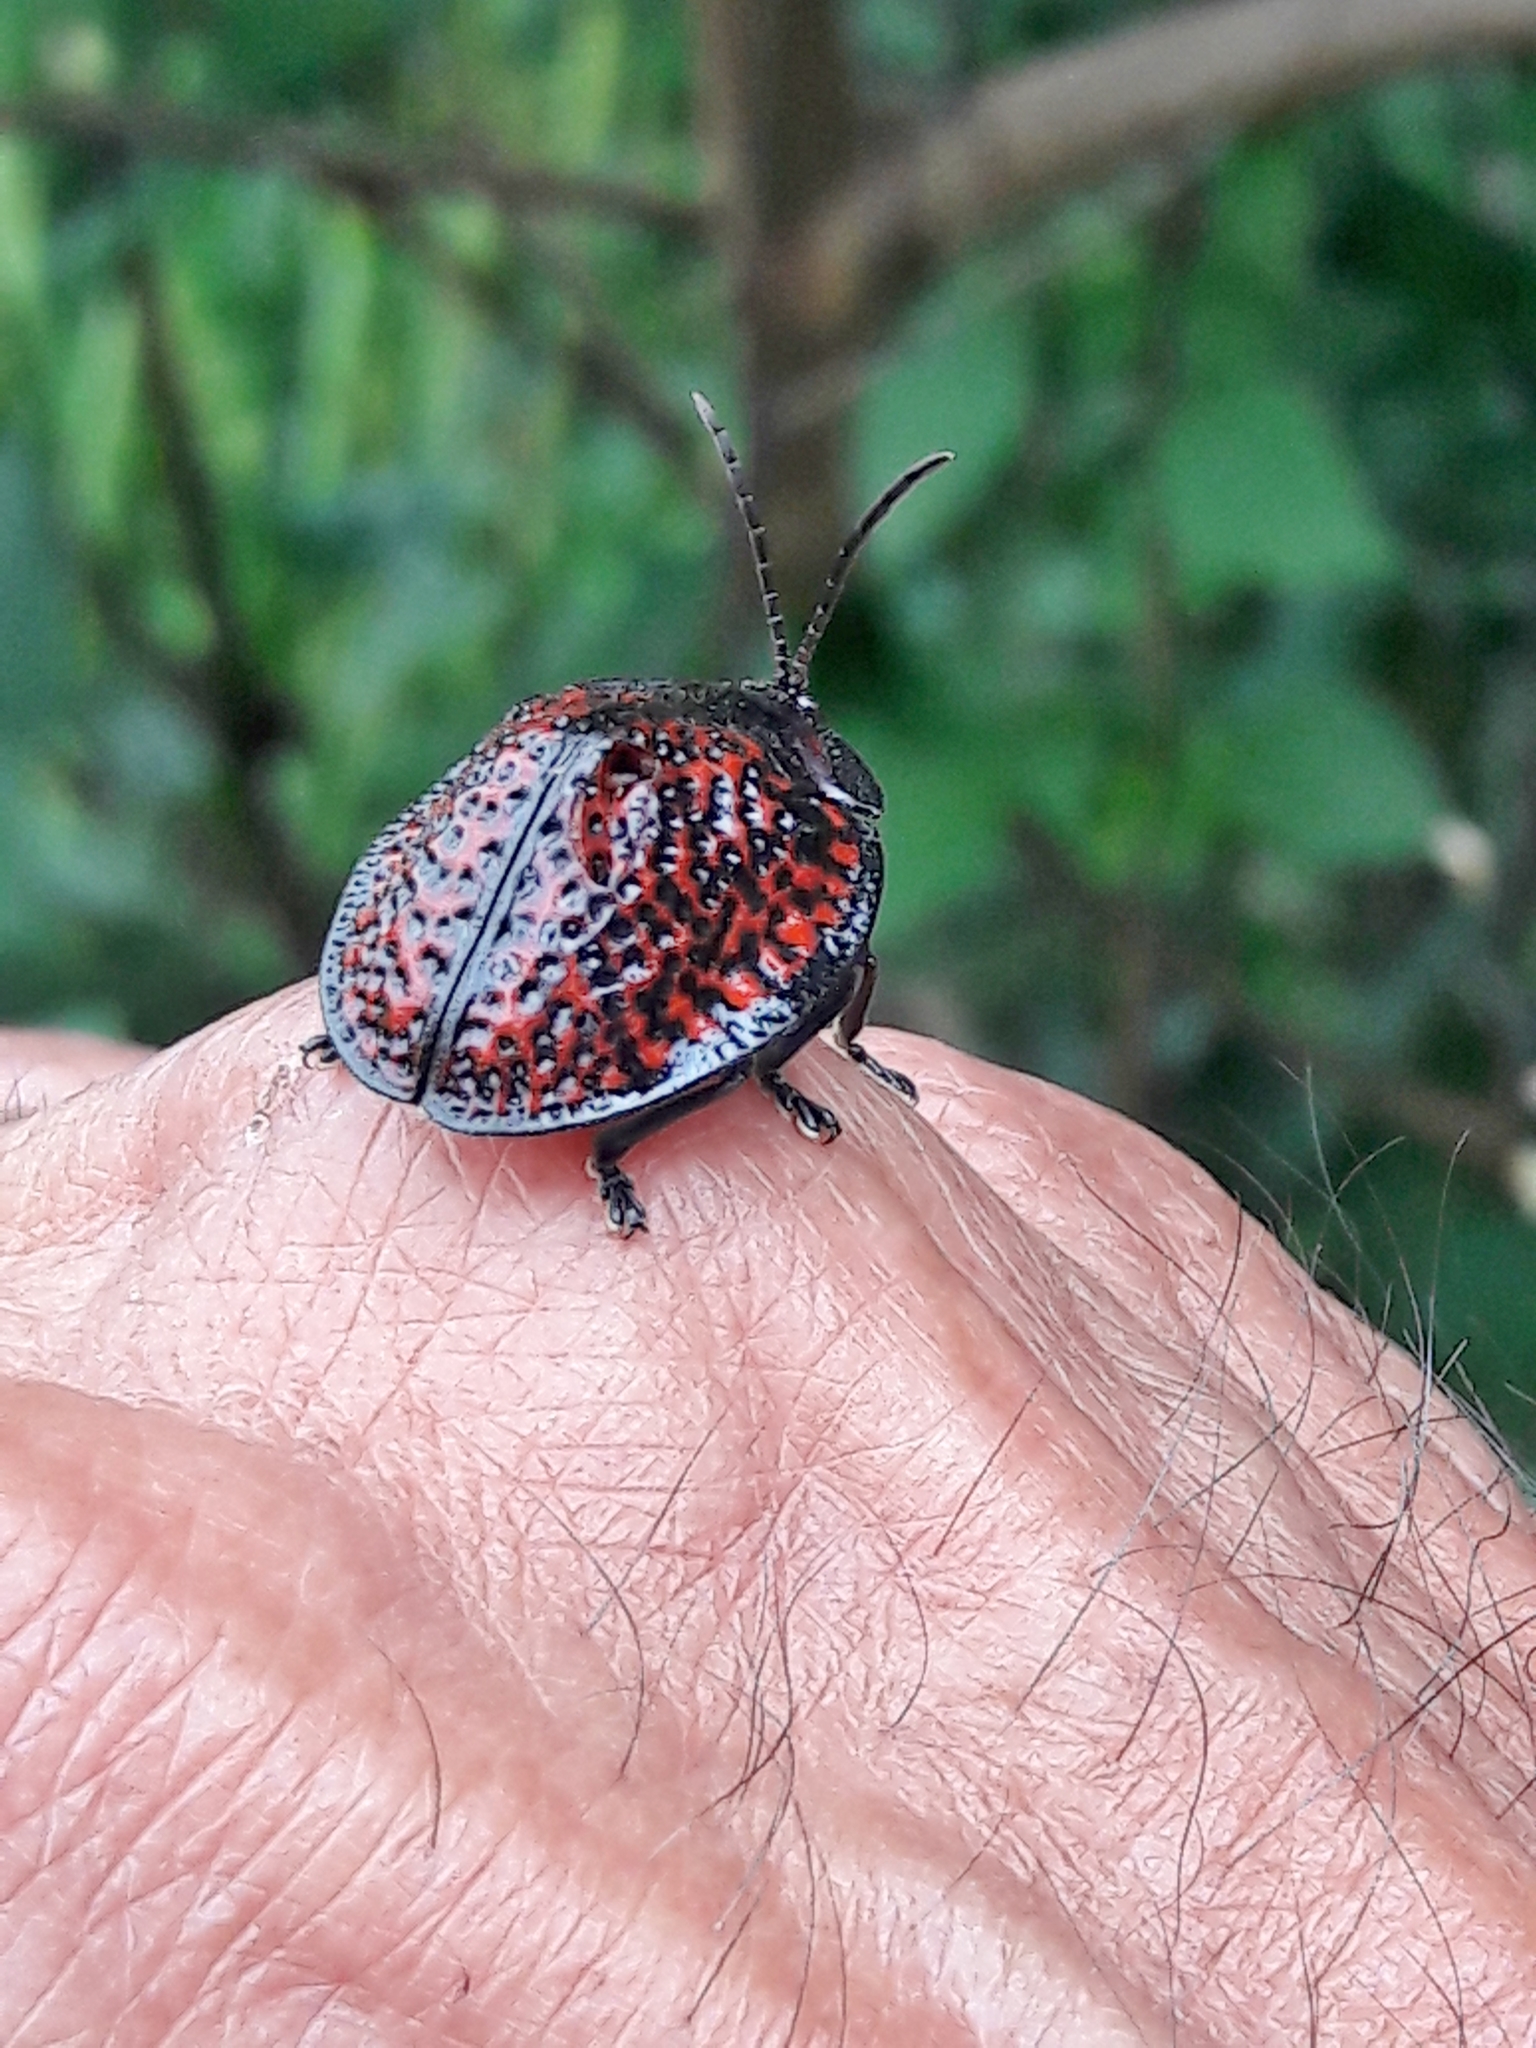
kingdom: Animalia
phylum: Arthropoda
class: Insecta
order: Coleoptera
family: Chrysomelidae
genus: Canistra
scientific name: Canistra irrorata
